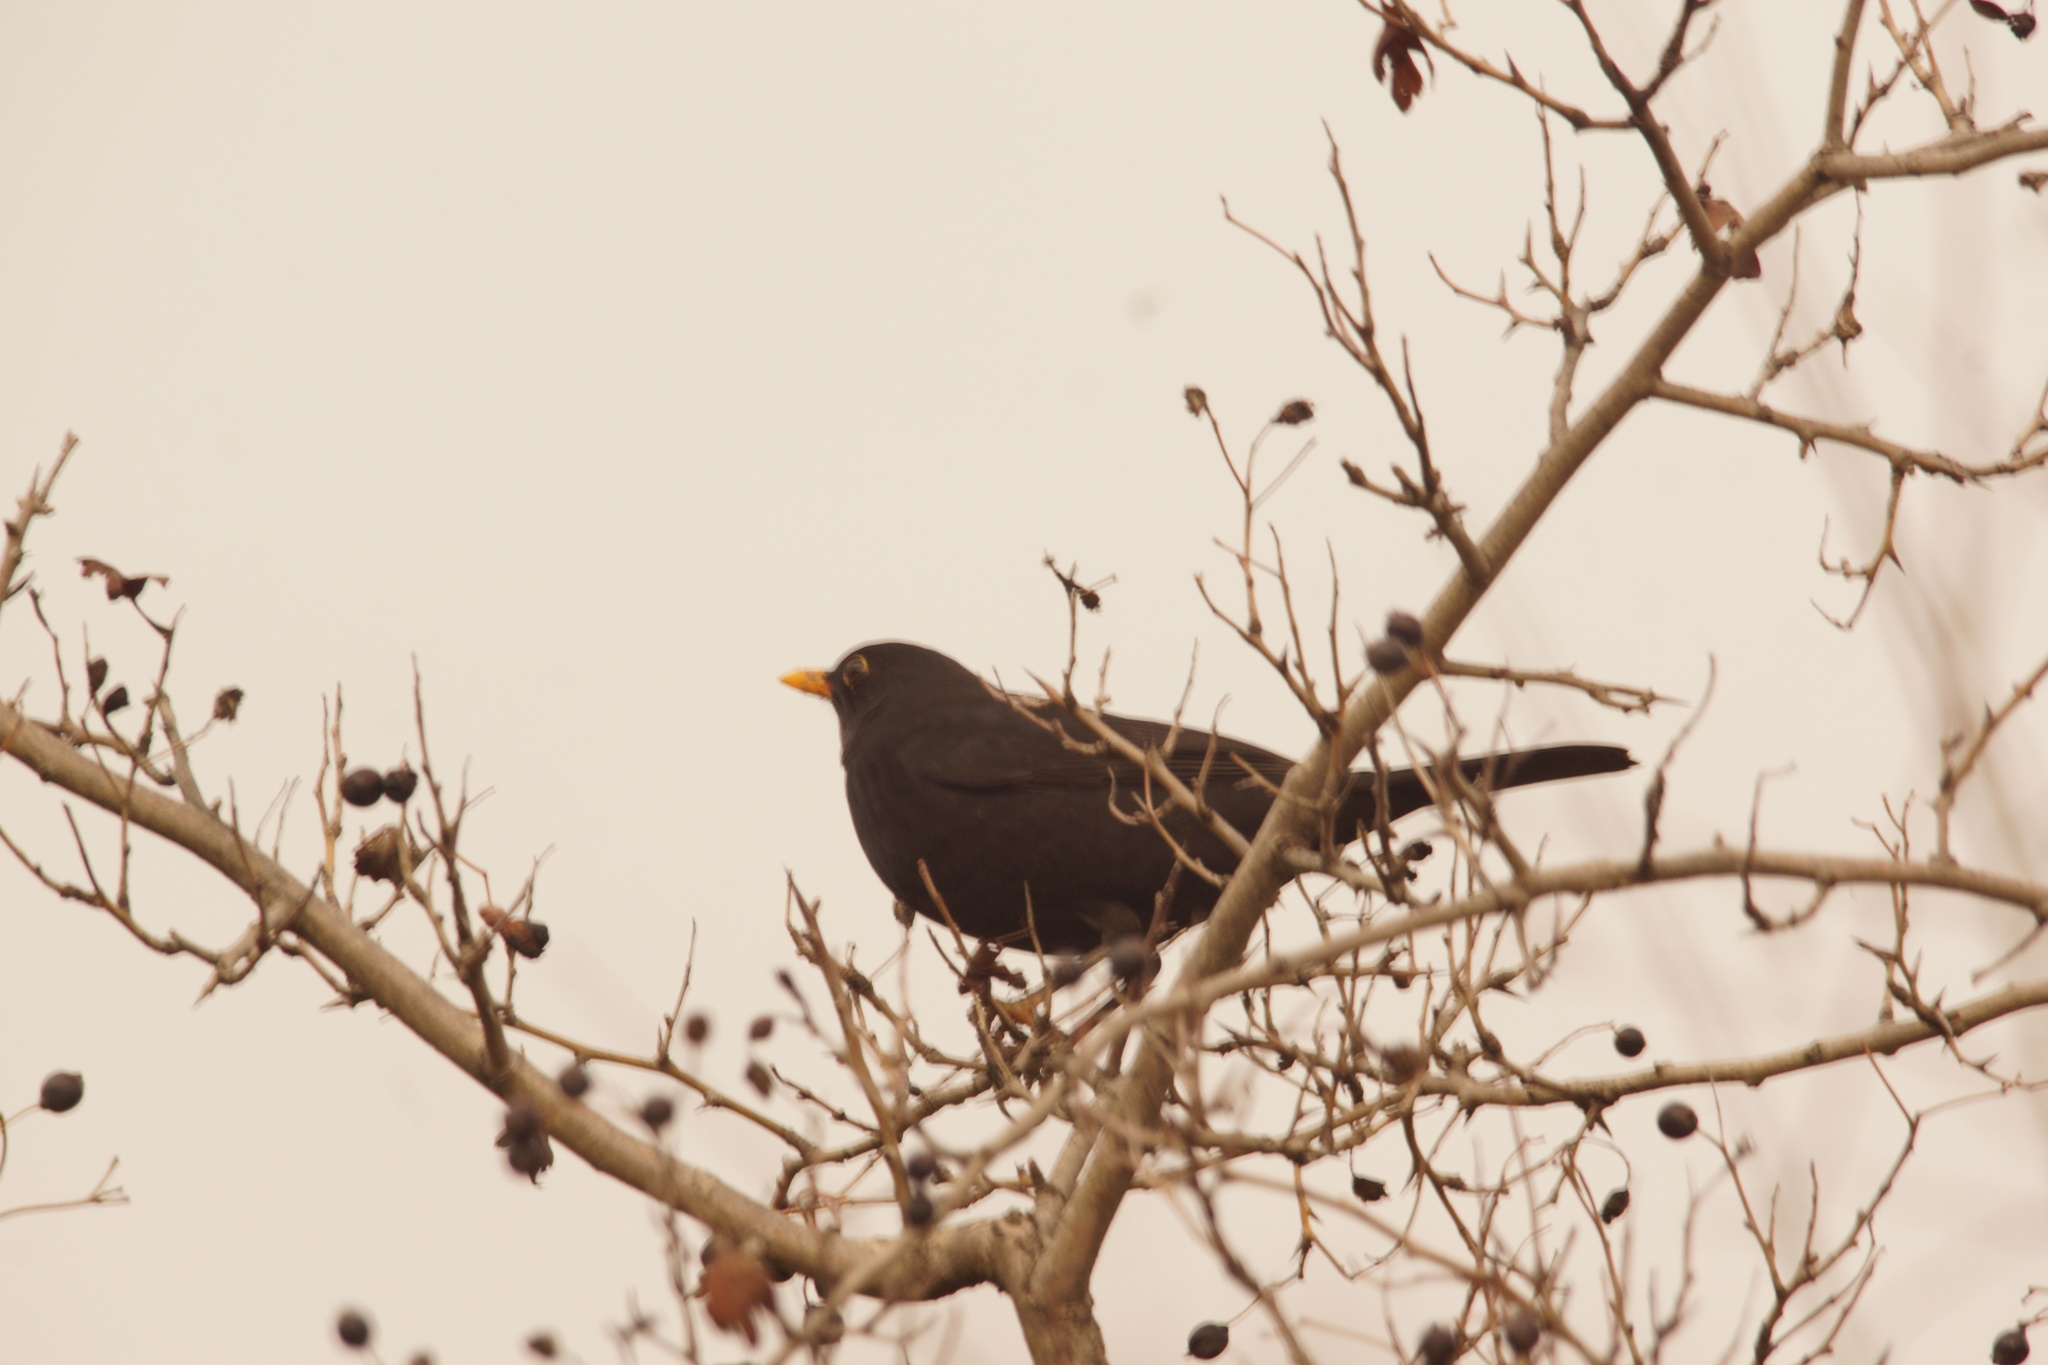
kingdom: Animalia
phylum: Chordata
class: Aves
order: Passeriformes
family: Turdidae
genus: Turdus
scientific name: Turdus merula
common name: Common blackbird
